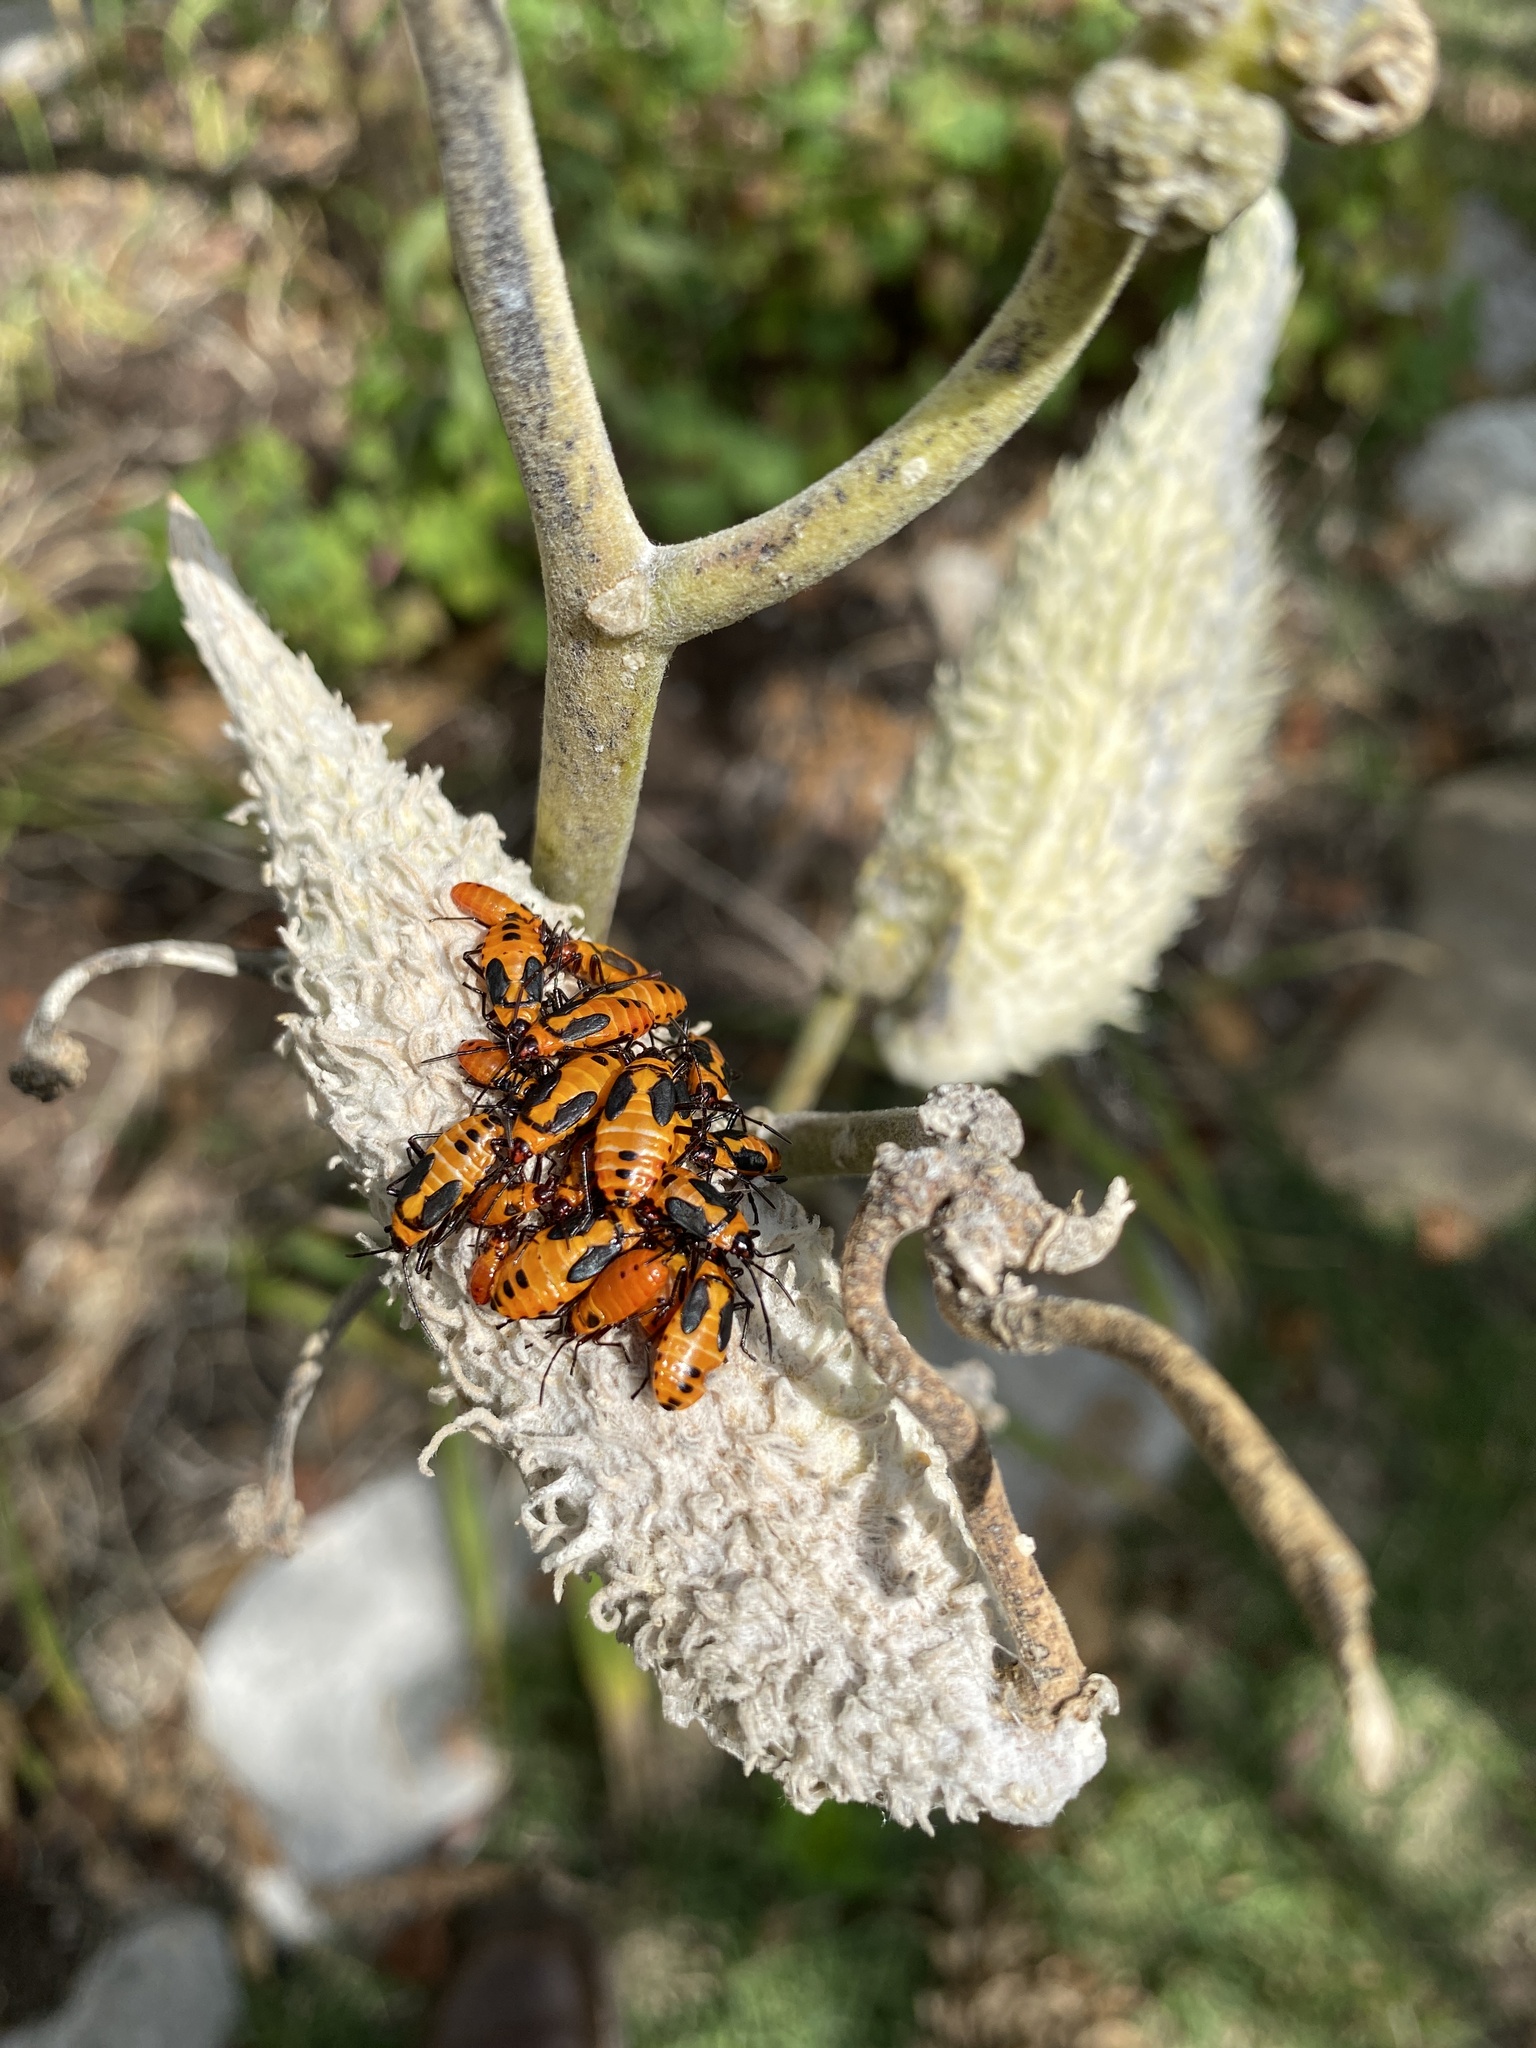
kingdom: Animalia
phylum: Arthropoda
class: Insecta
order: Hemiptera
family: Lygaeidae
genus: Oncopeltus
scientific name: Oncopeltus fasciatus
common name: Large milkweed bug
